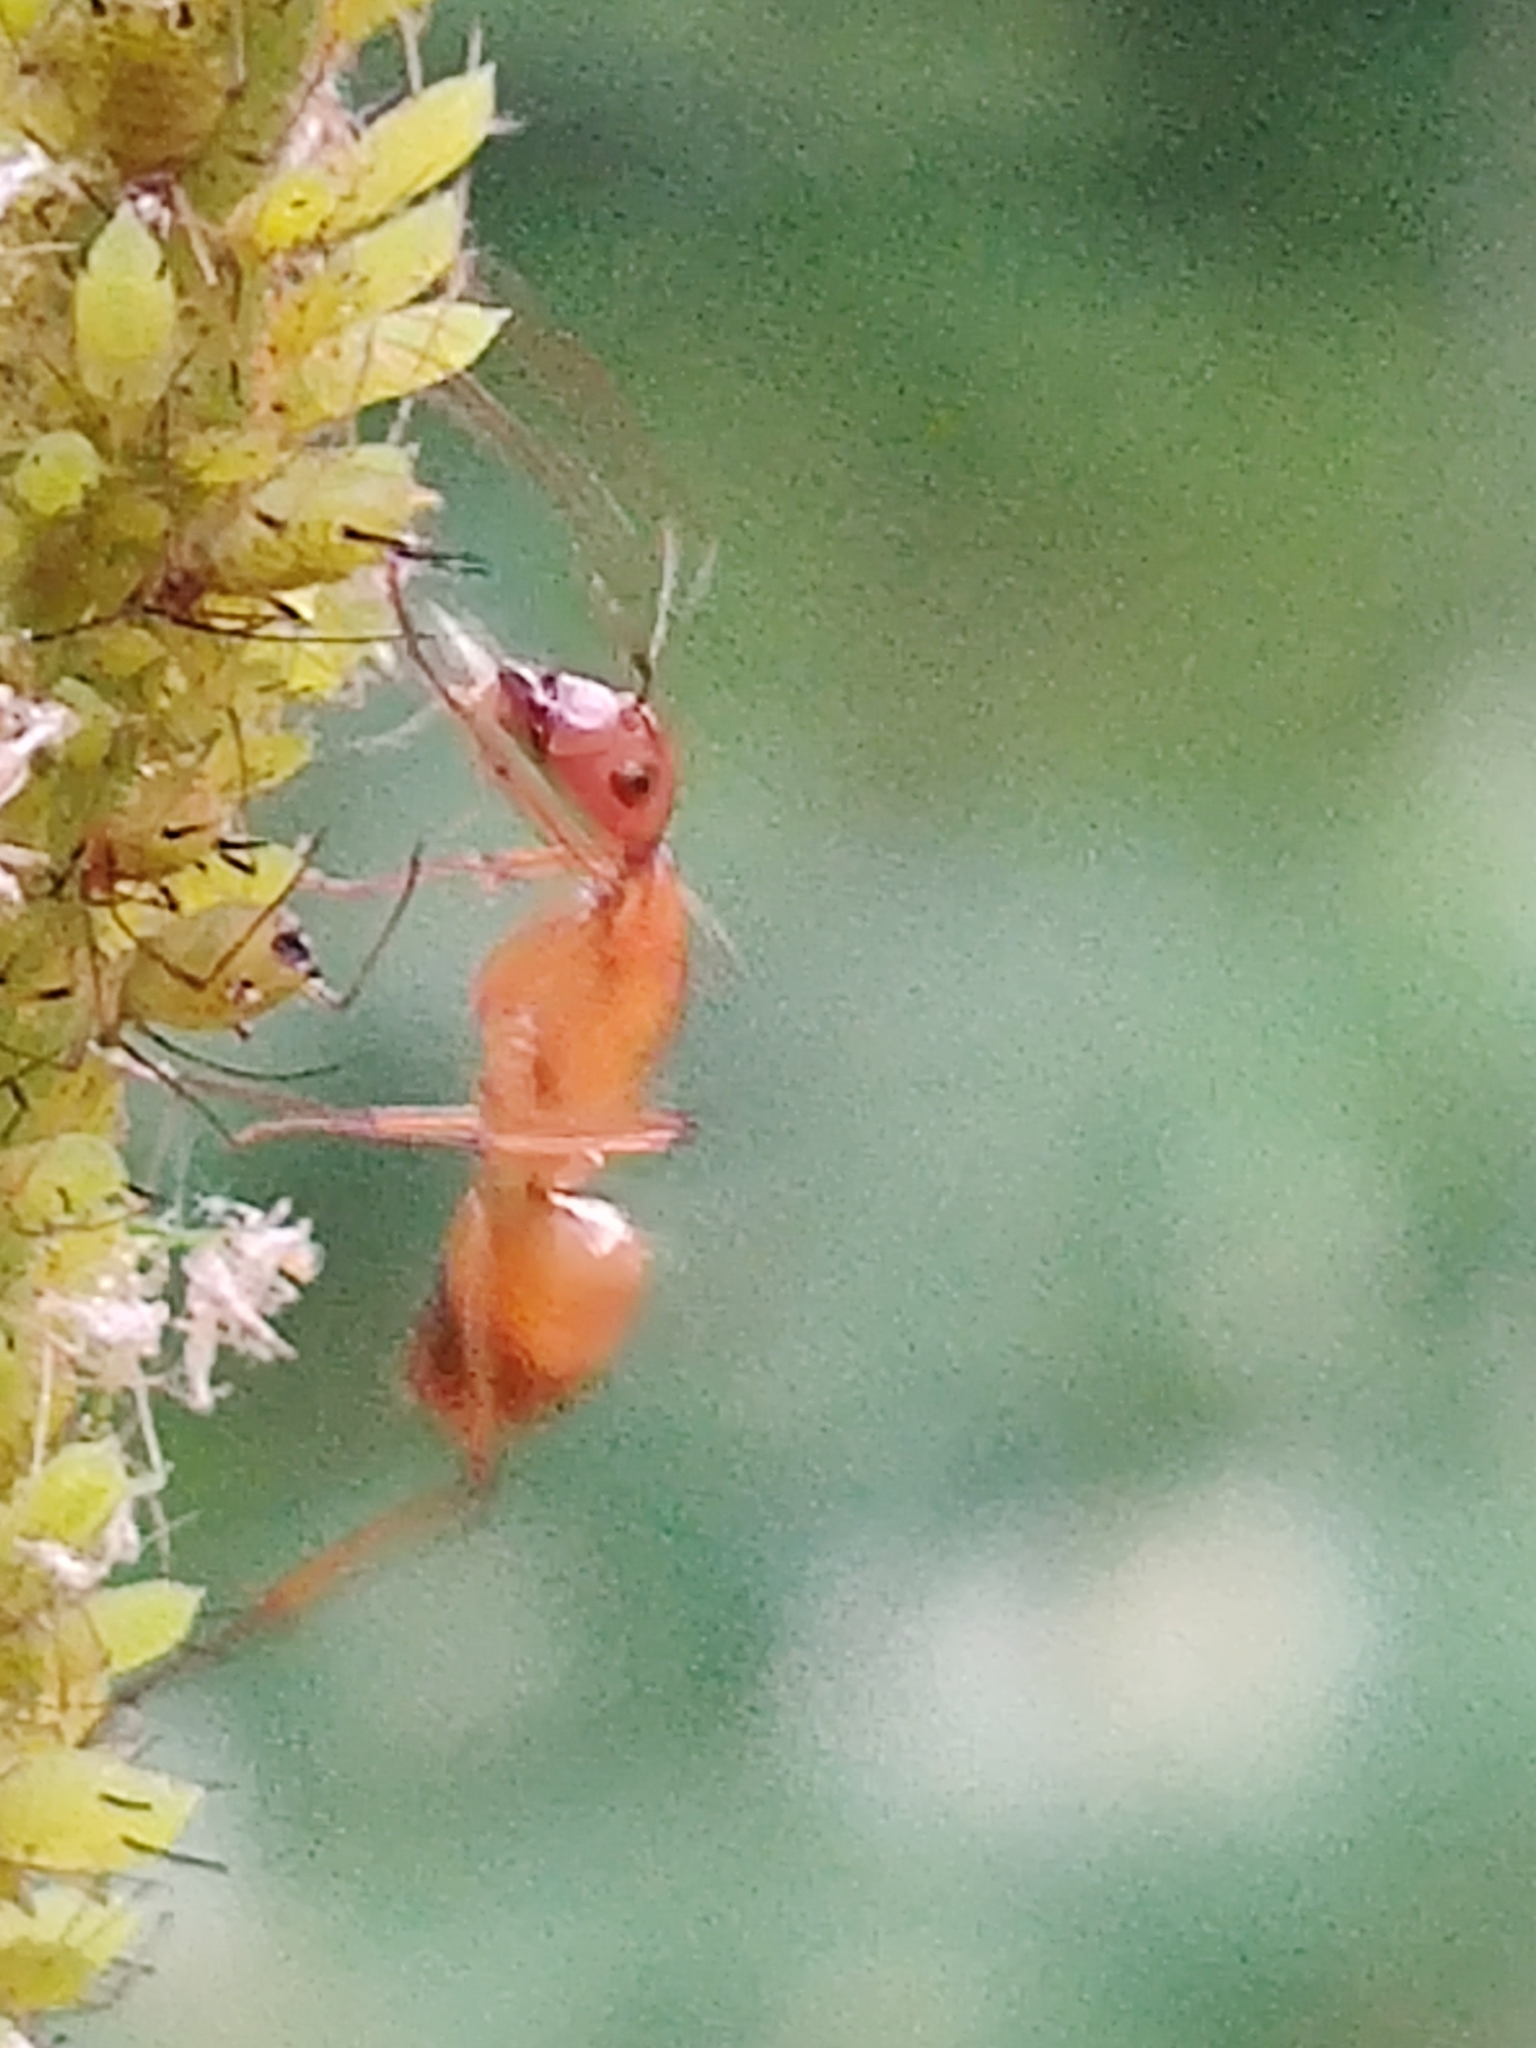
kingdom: Animalia
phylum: Arthropoda
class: Insecta
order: Hymenoptera
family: Formicidae
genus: Camponotus
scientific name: Camponotus castaneus
